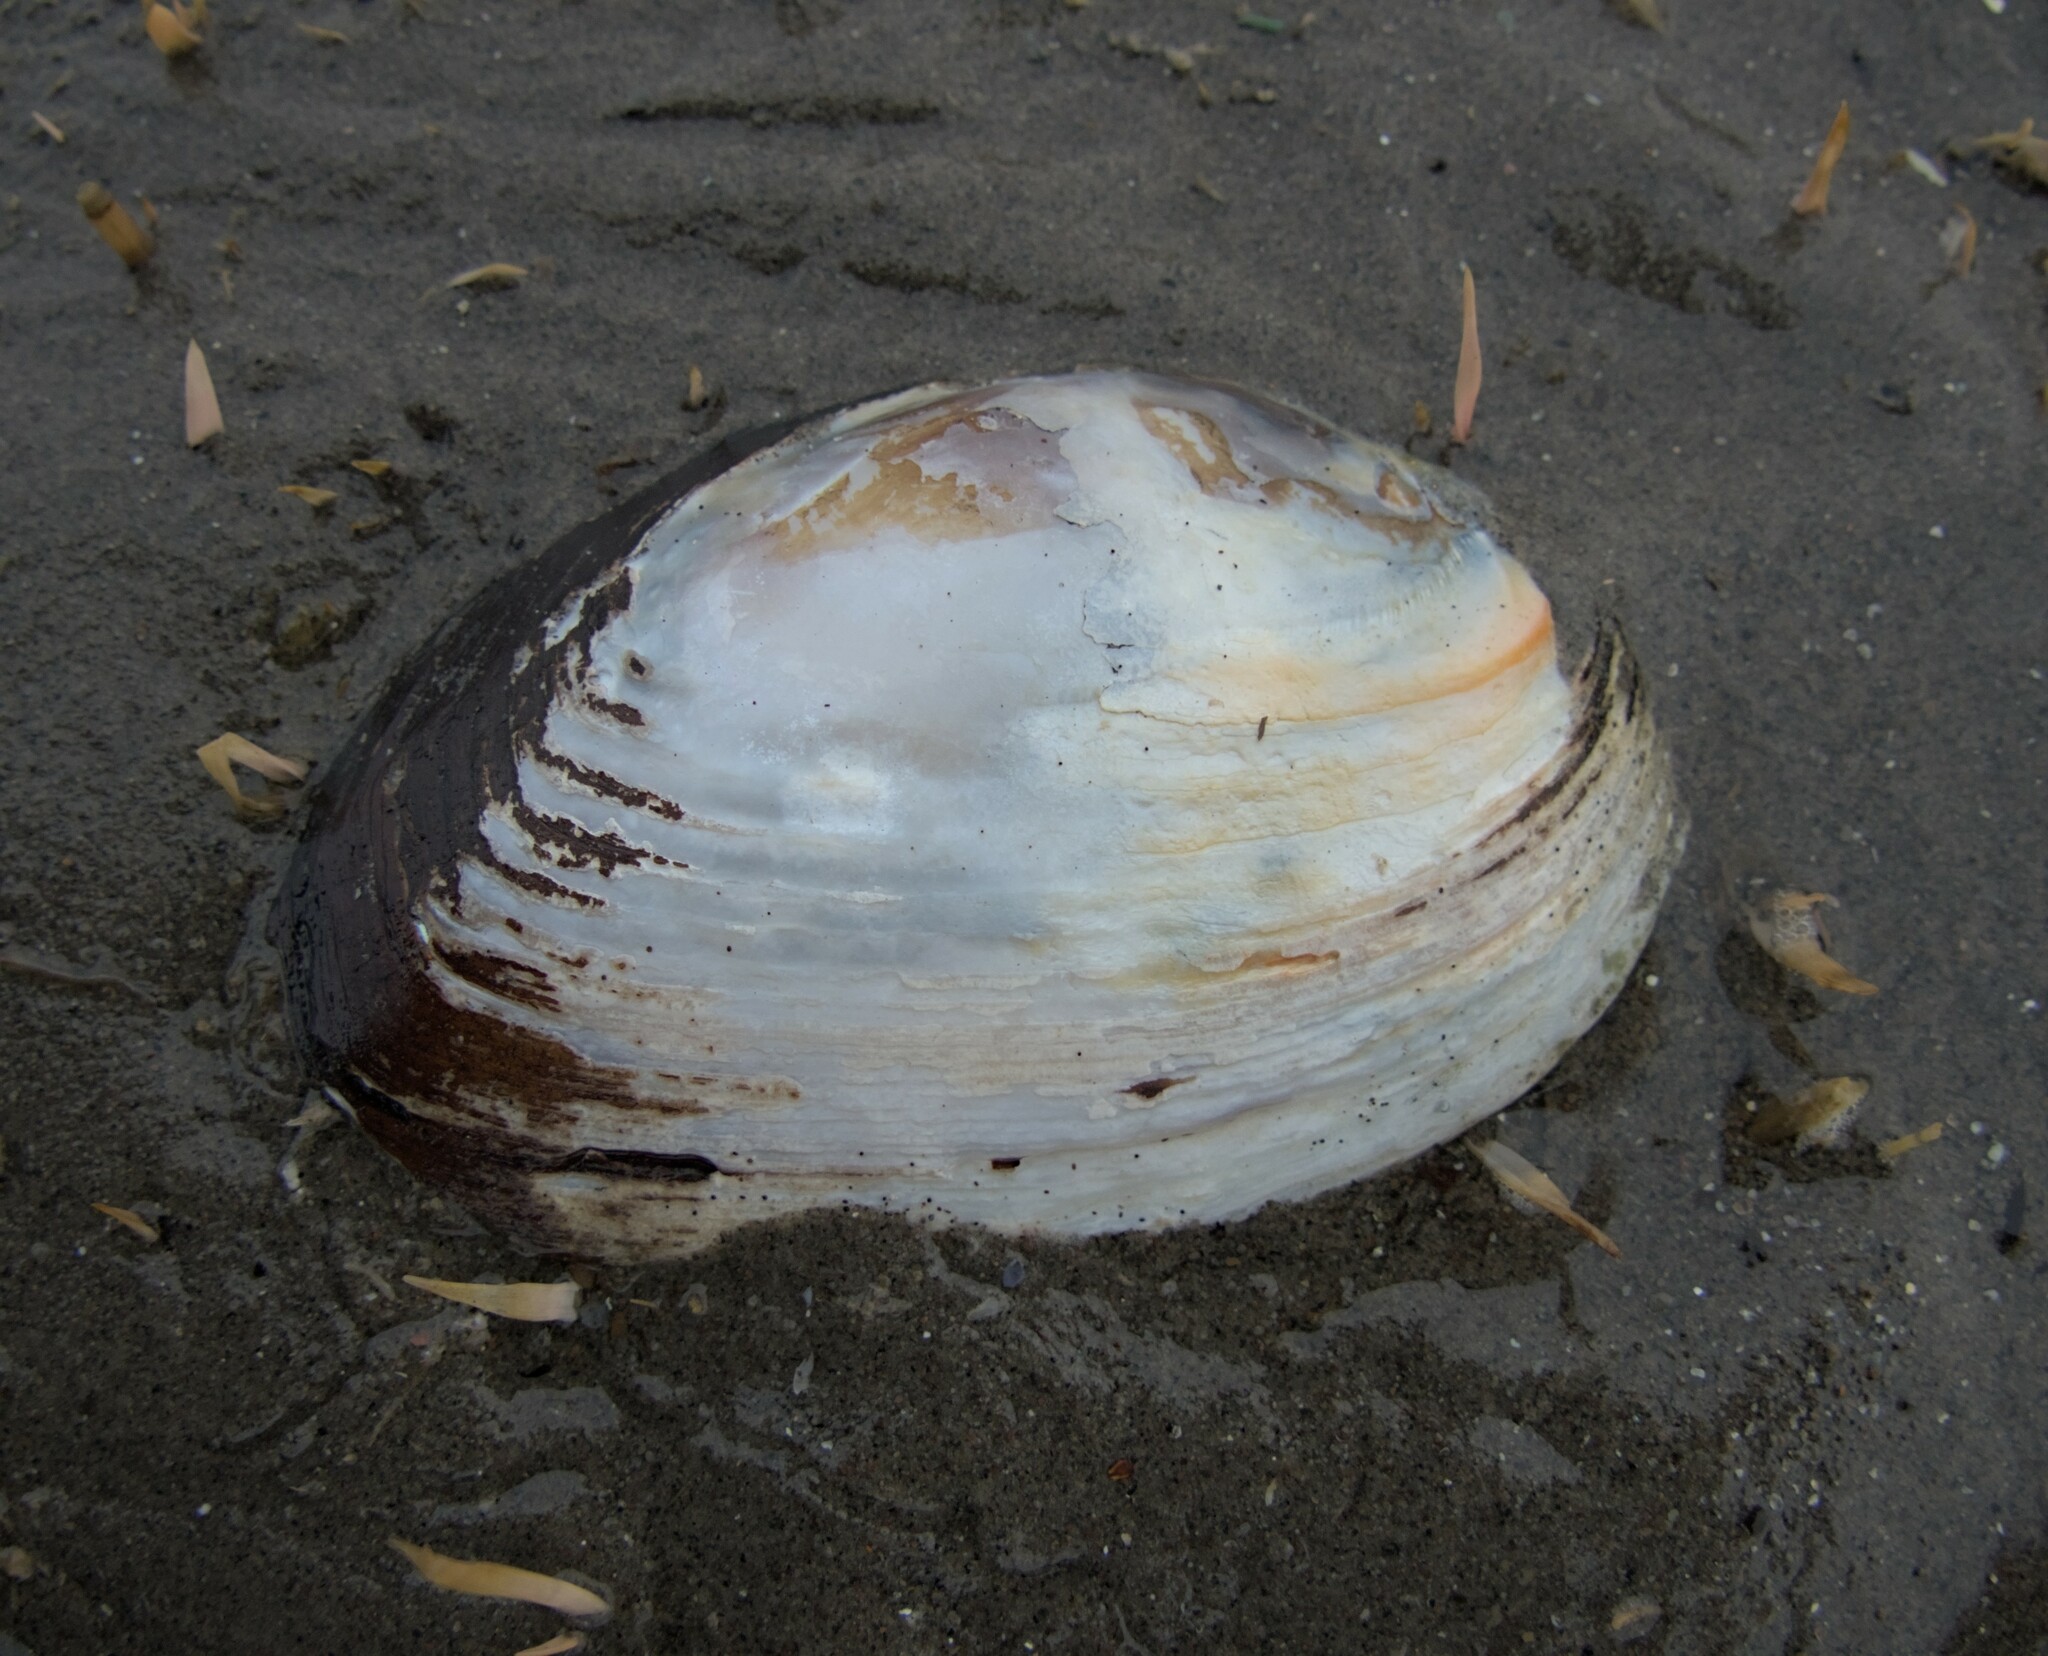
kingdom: Animalia
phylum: Mollusca
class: Bivalvia
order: Unionida
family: Unionidae
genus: Elliptio
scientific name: Elliptio crassidens
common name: Blue ham
